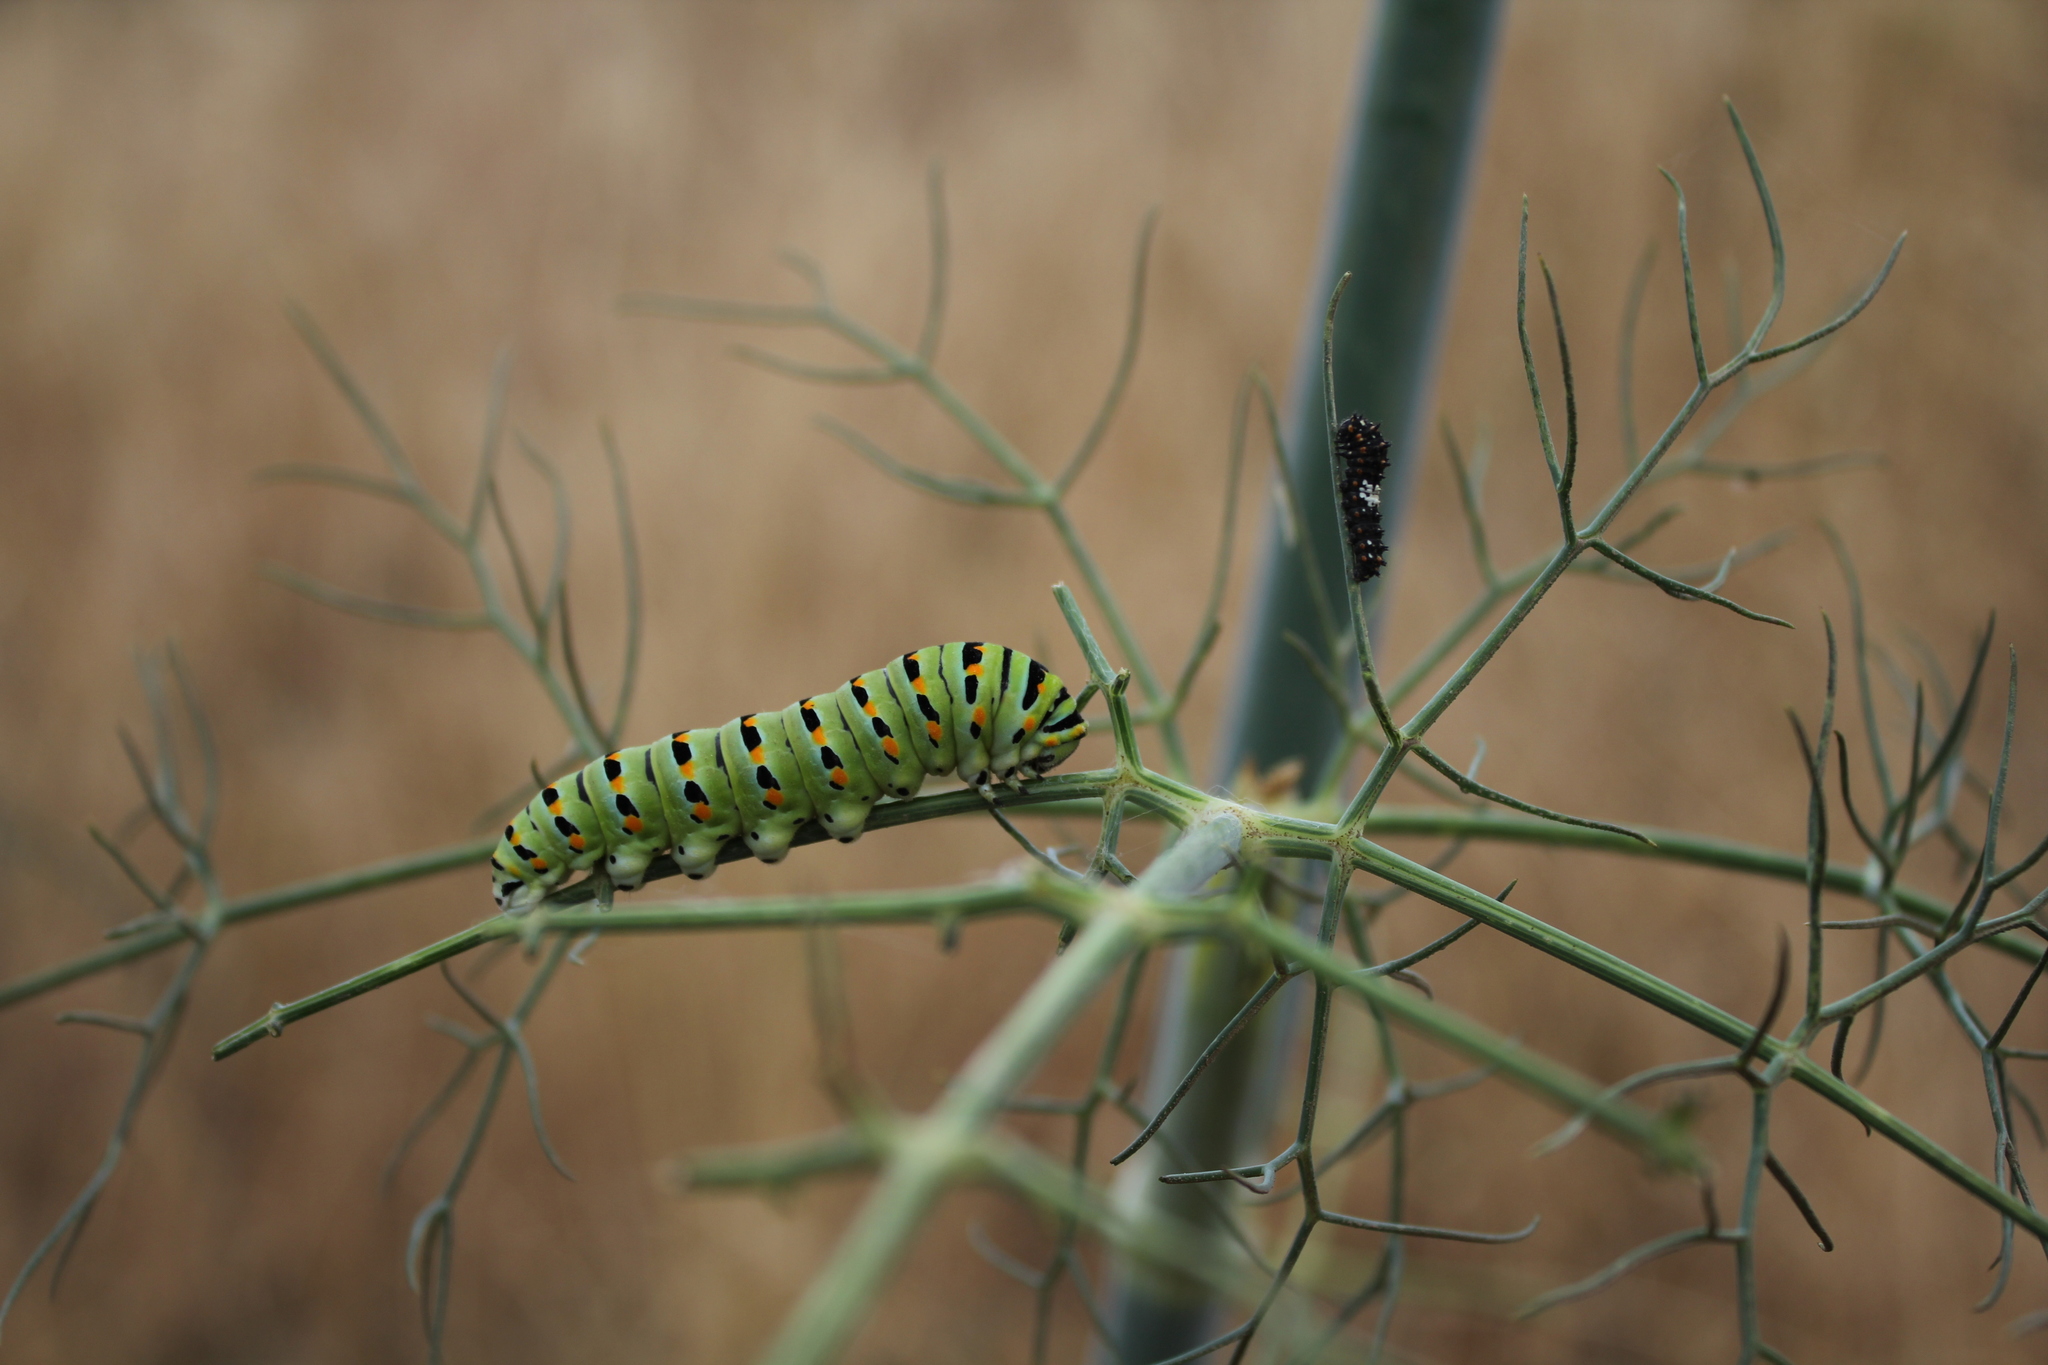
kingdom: Animalia
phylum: Arthropoda
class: Insecta
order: Lepidoptera
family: Papilionidae
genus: Papilio
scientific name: Papilio zelicaon
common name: Anise swallowtail
